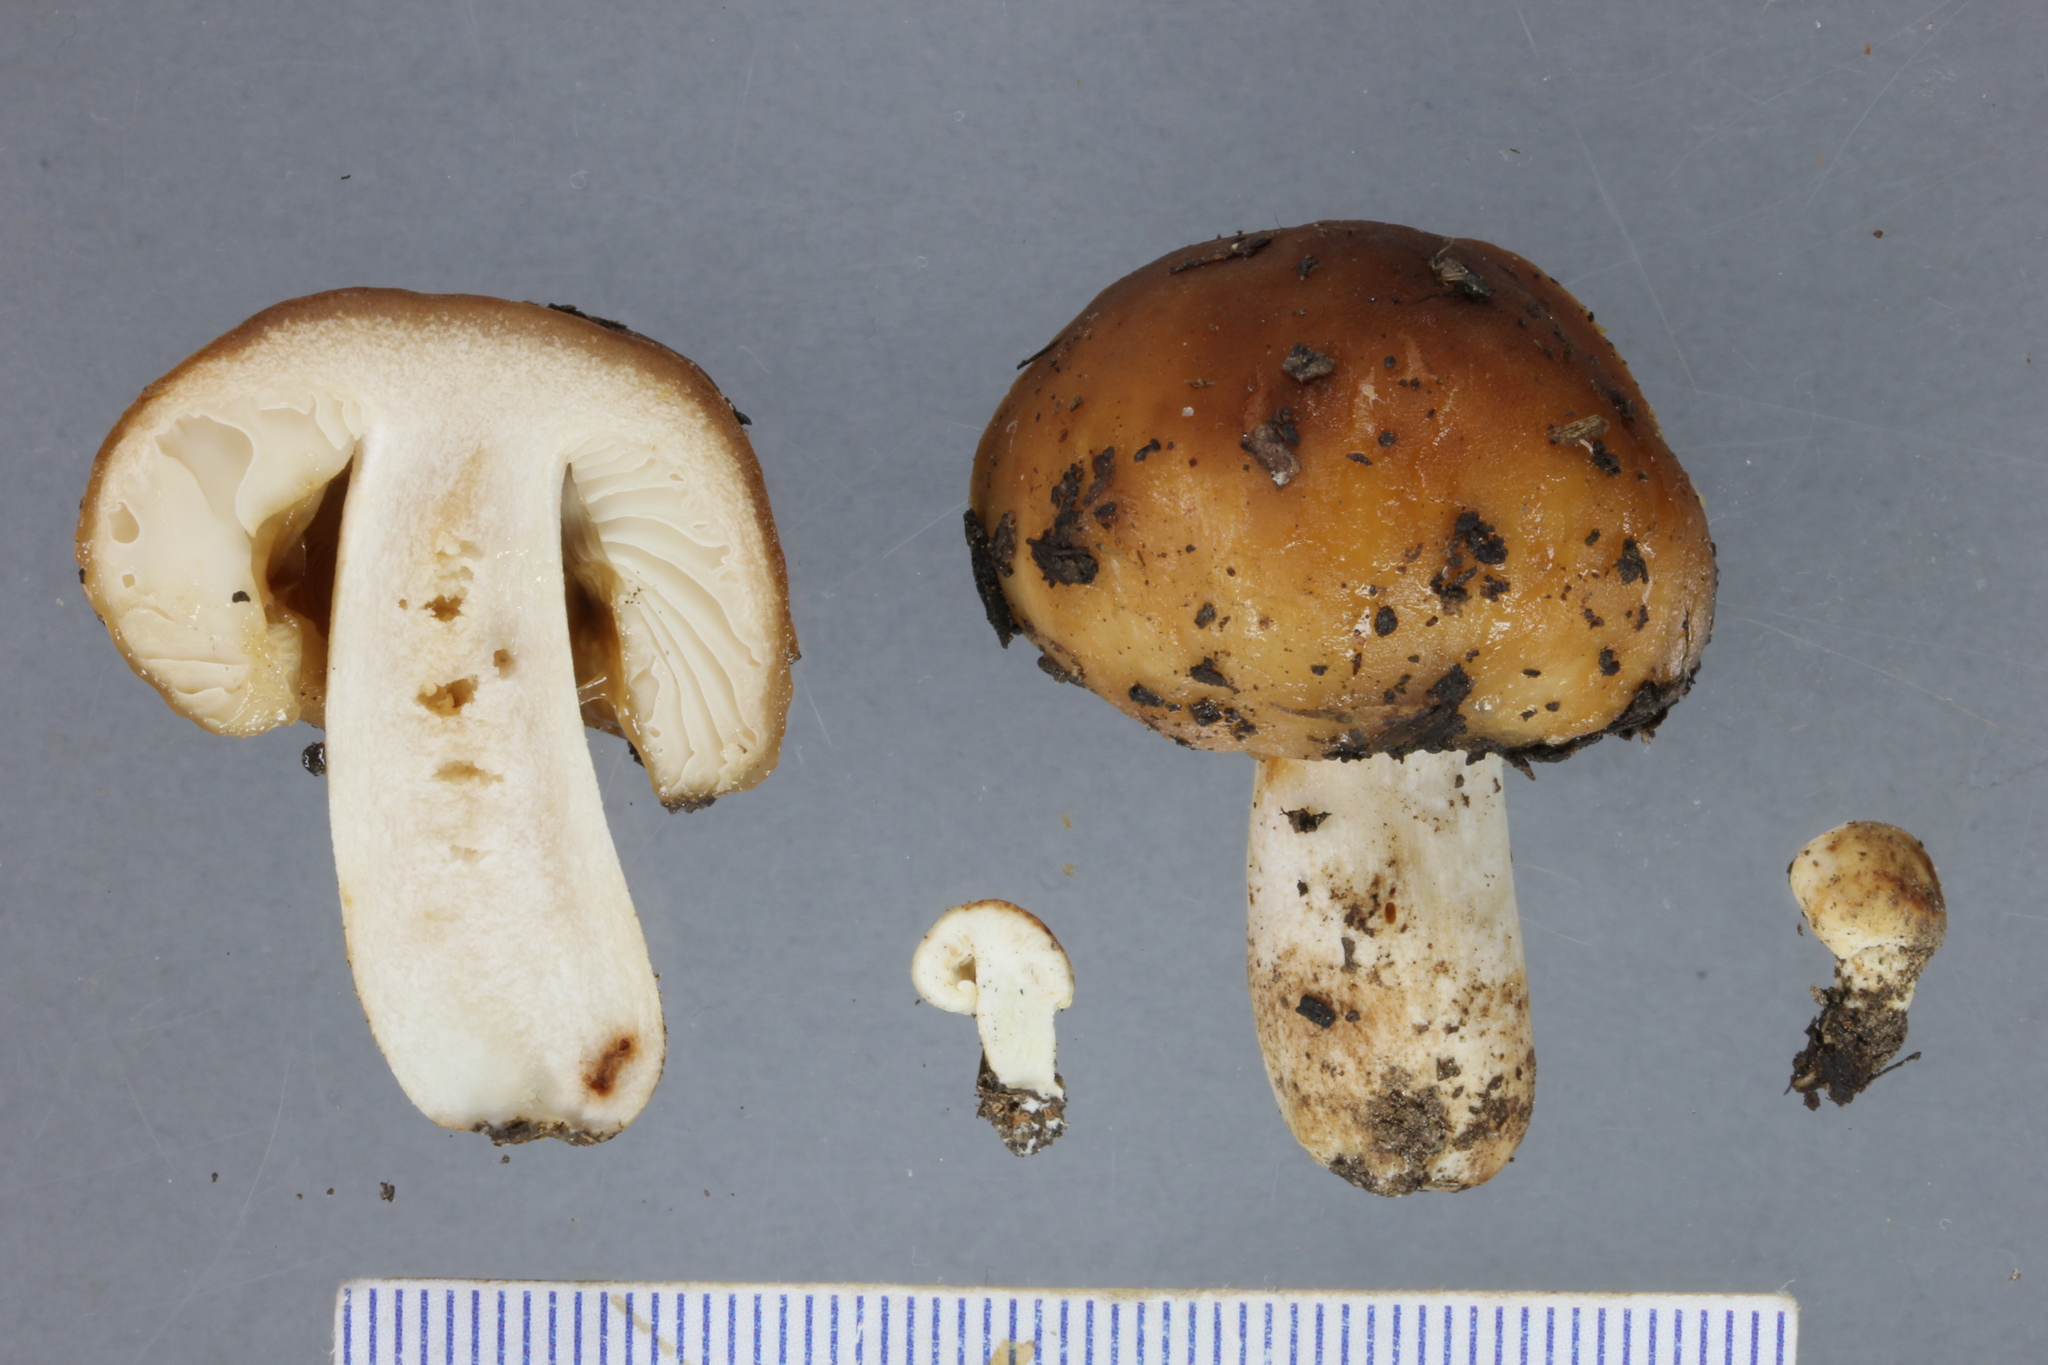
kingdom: Fungi
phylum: Basidiomycota
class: Agaricomycetes
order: Russulales
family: Russulaceae
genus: Russula
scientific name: Russula novae-zelandiae
